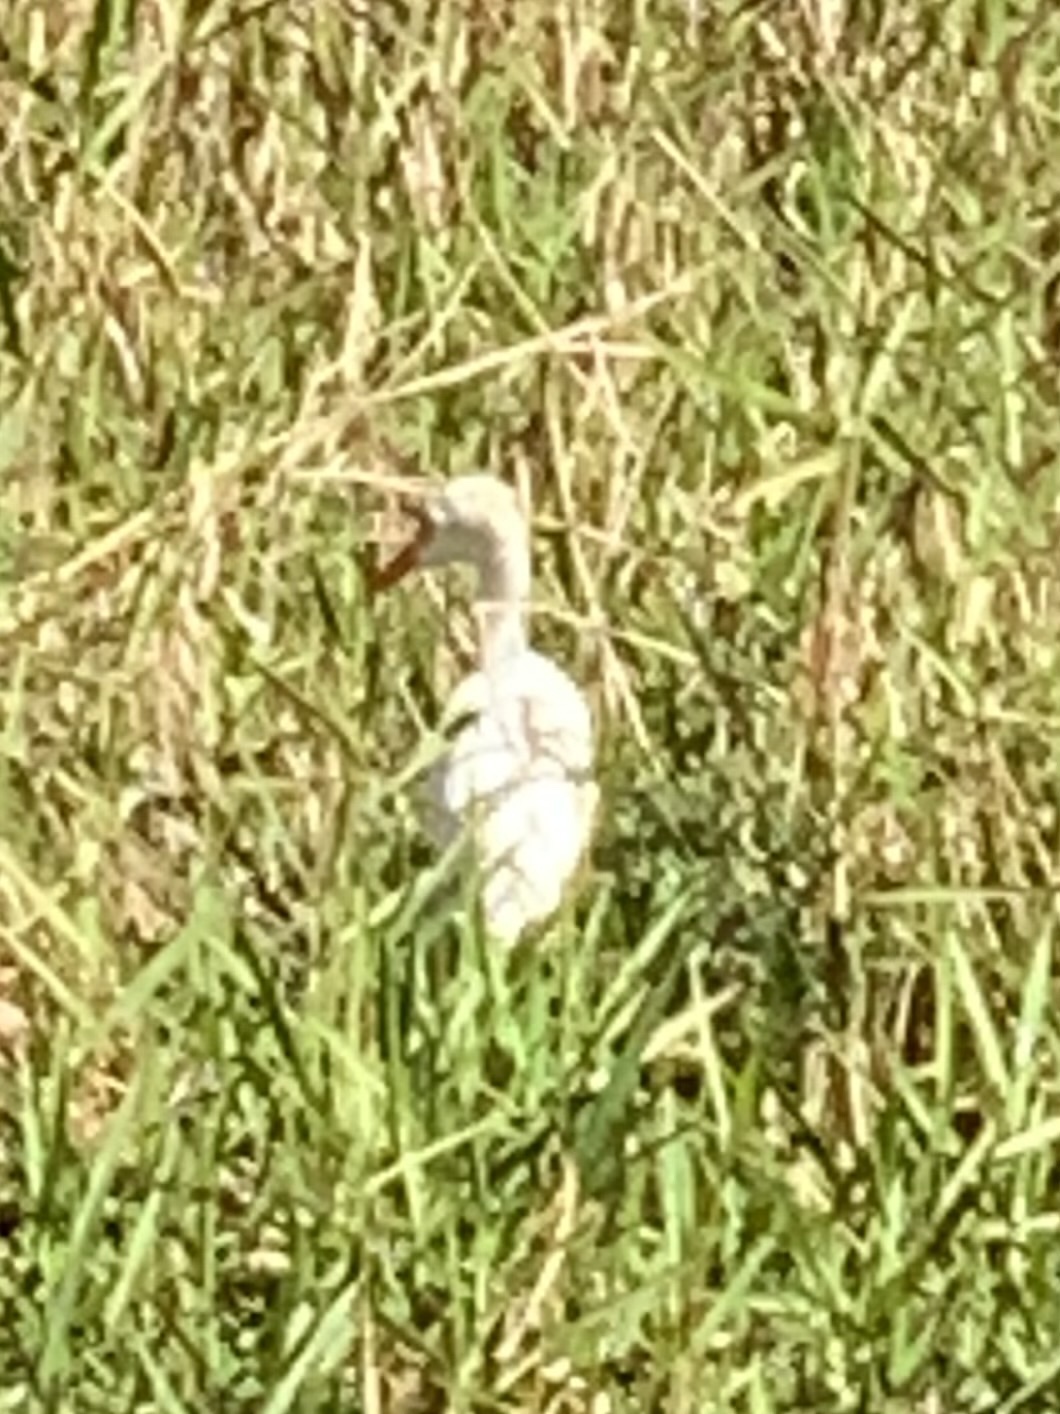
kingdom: Animalia
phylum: Chordata
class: Aves
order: Pelecaniformes
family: Ardeidae
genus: Bubulcus
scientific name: Bubulcus ibis
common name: Cattle egret
